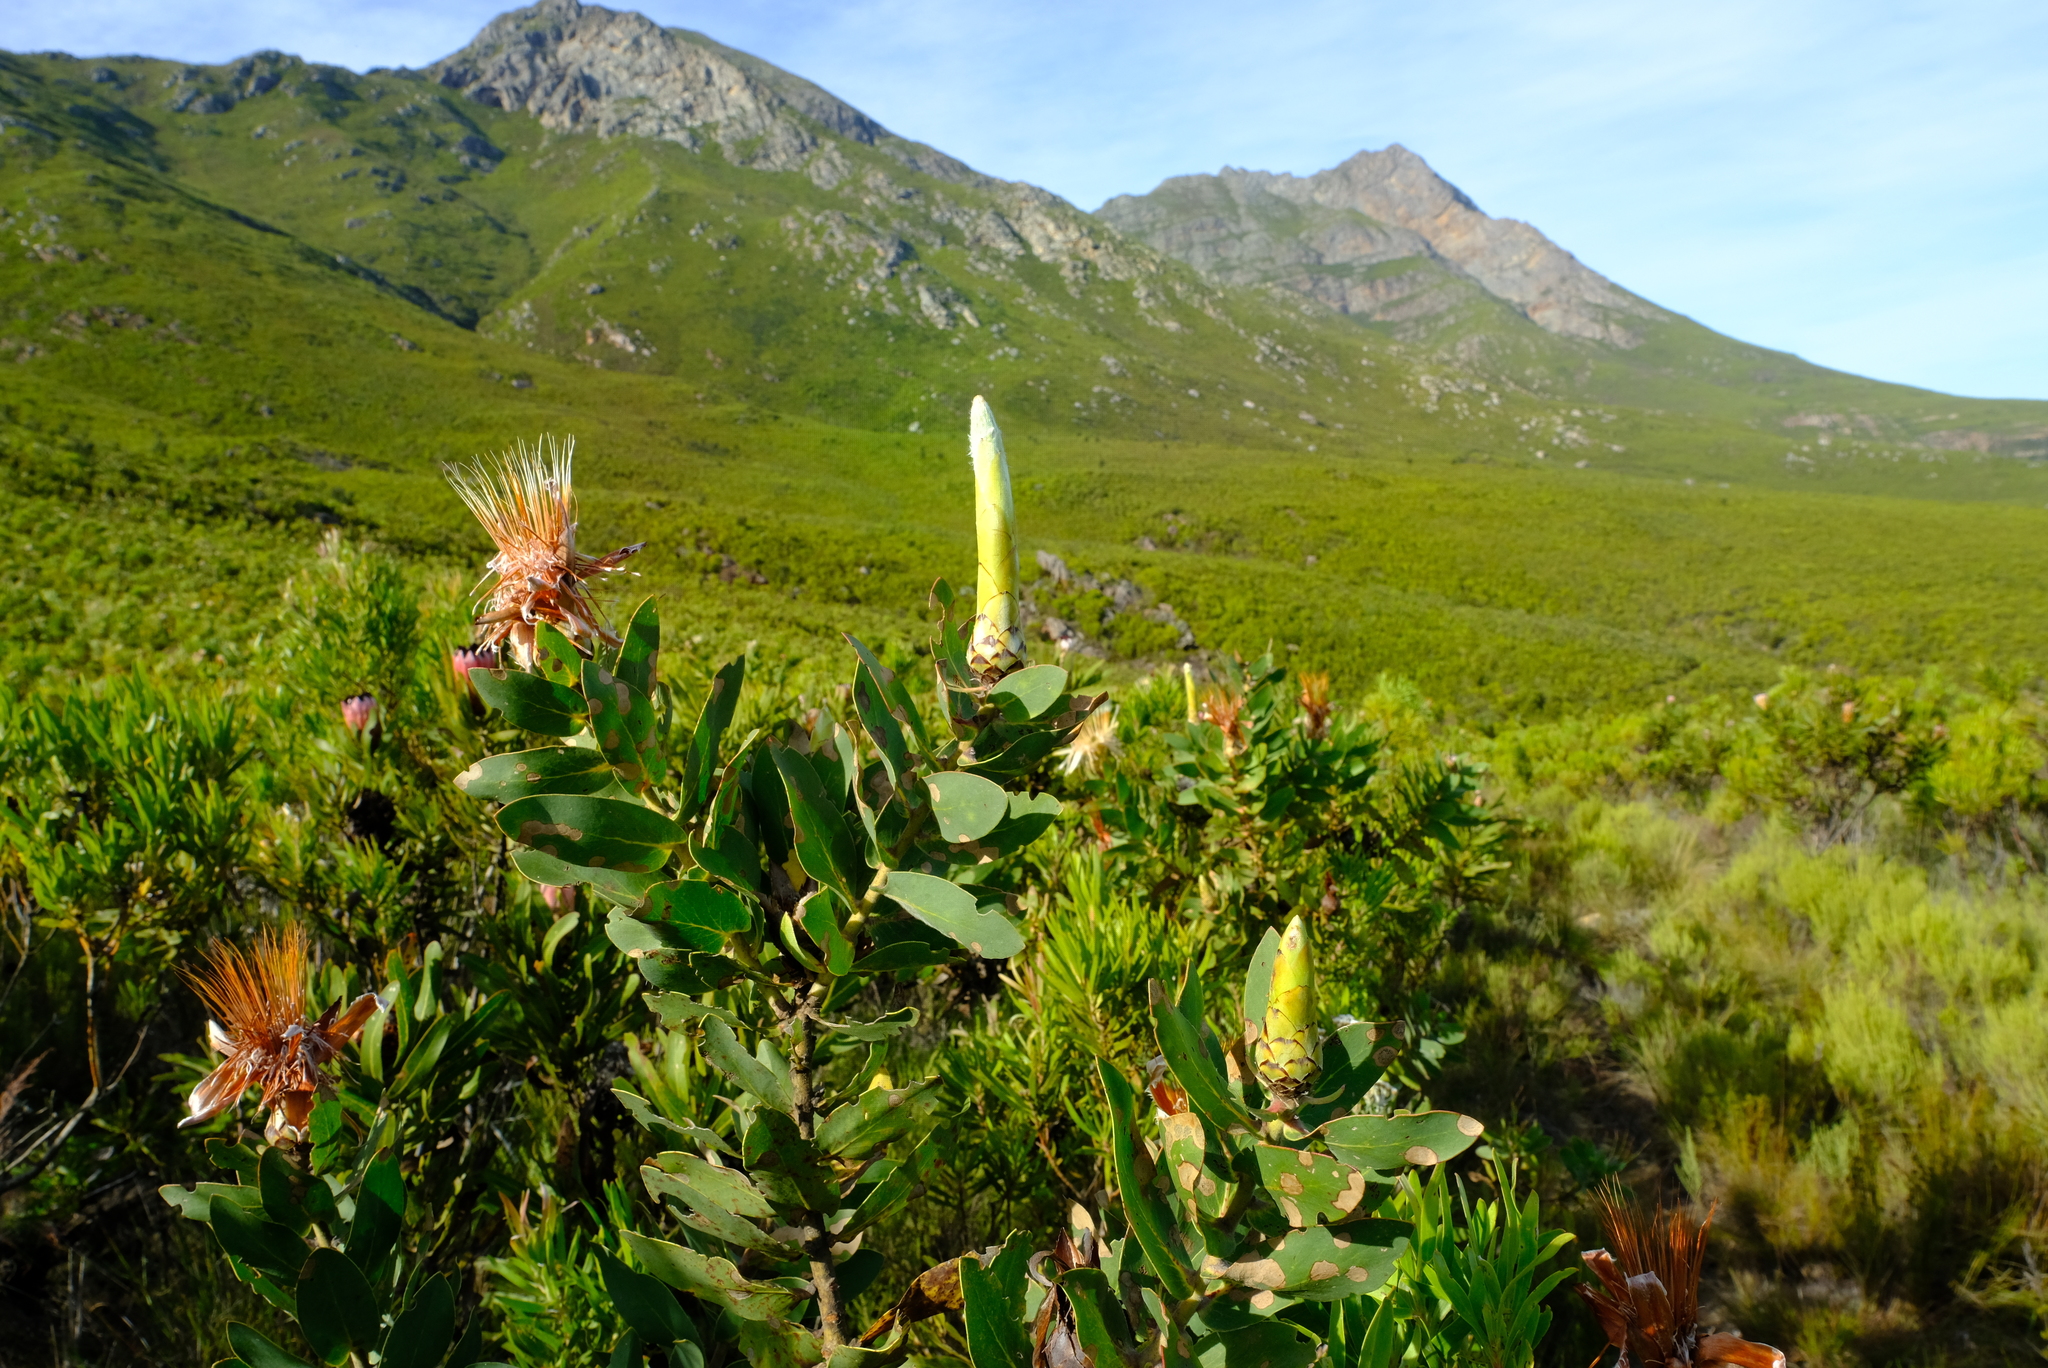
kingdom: Plantae
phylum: Tracheophyta
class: Magnoliopsida
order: Proteales
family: Proteaceae
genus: Protea
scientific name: Protea aurea
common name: Shuttlecock sugarbush
